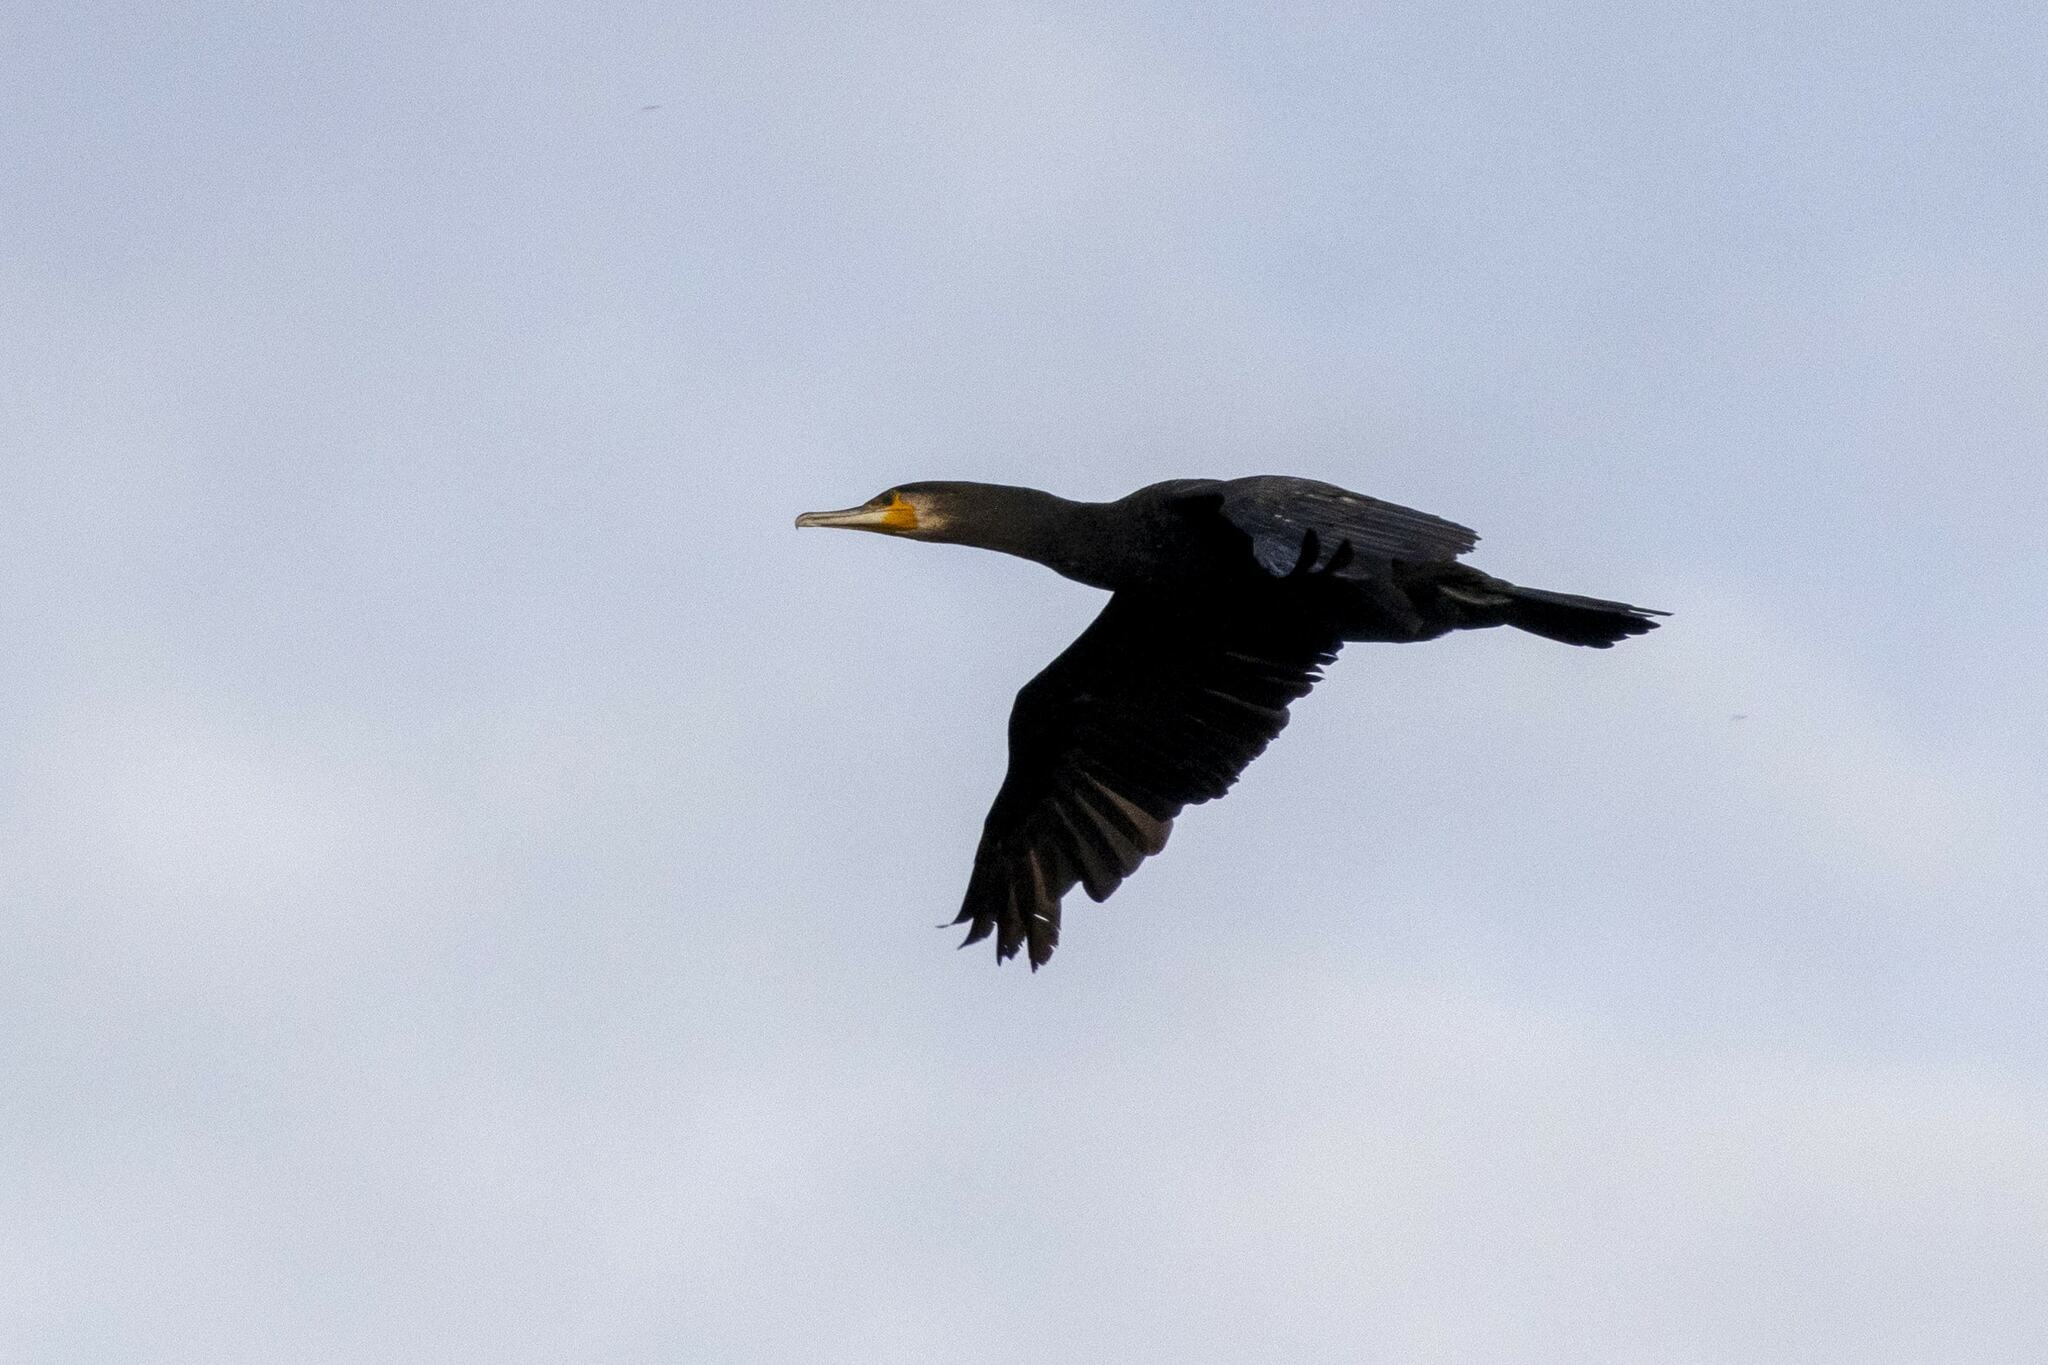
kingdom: Animalia
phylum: Chordata
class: Aves
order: Suliformes
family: Phalacrocoracidae
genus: Phalacrocorax
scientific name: Phalacrocorax carbo
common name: Great cormorant
